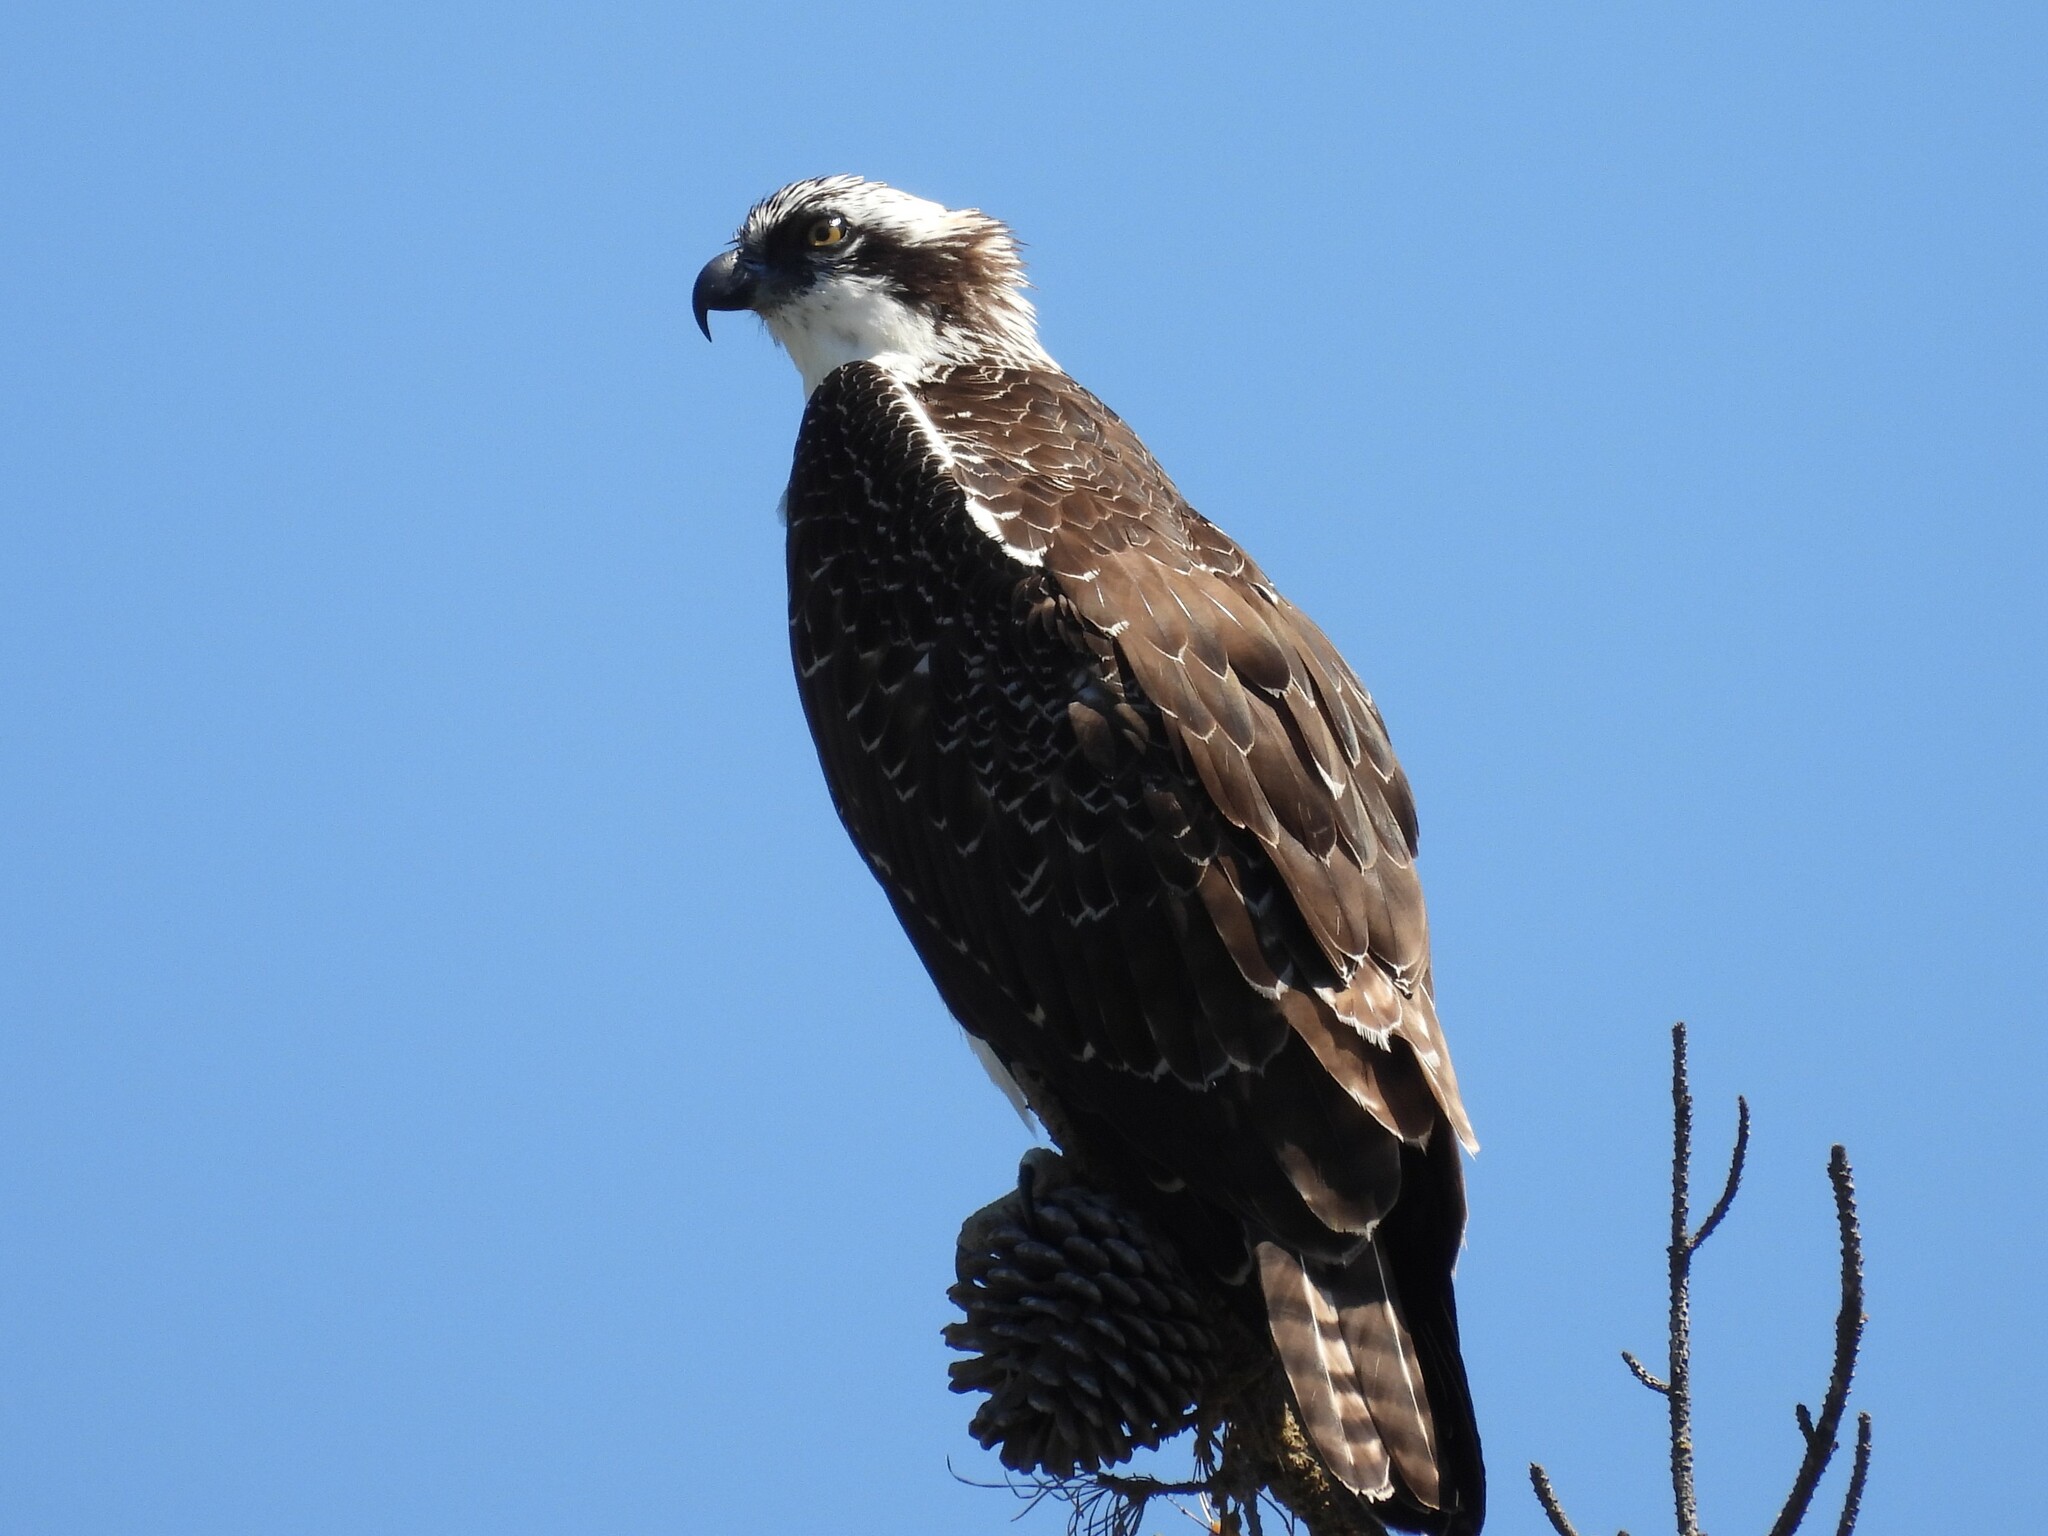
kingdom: Animalia
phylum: Chordata
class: Aves
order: Accipitriformes
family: Pandionidae
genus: Pandion
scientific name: Pandion haliaetus
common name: Osprey
